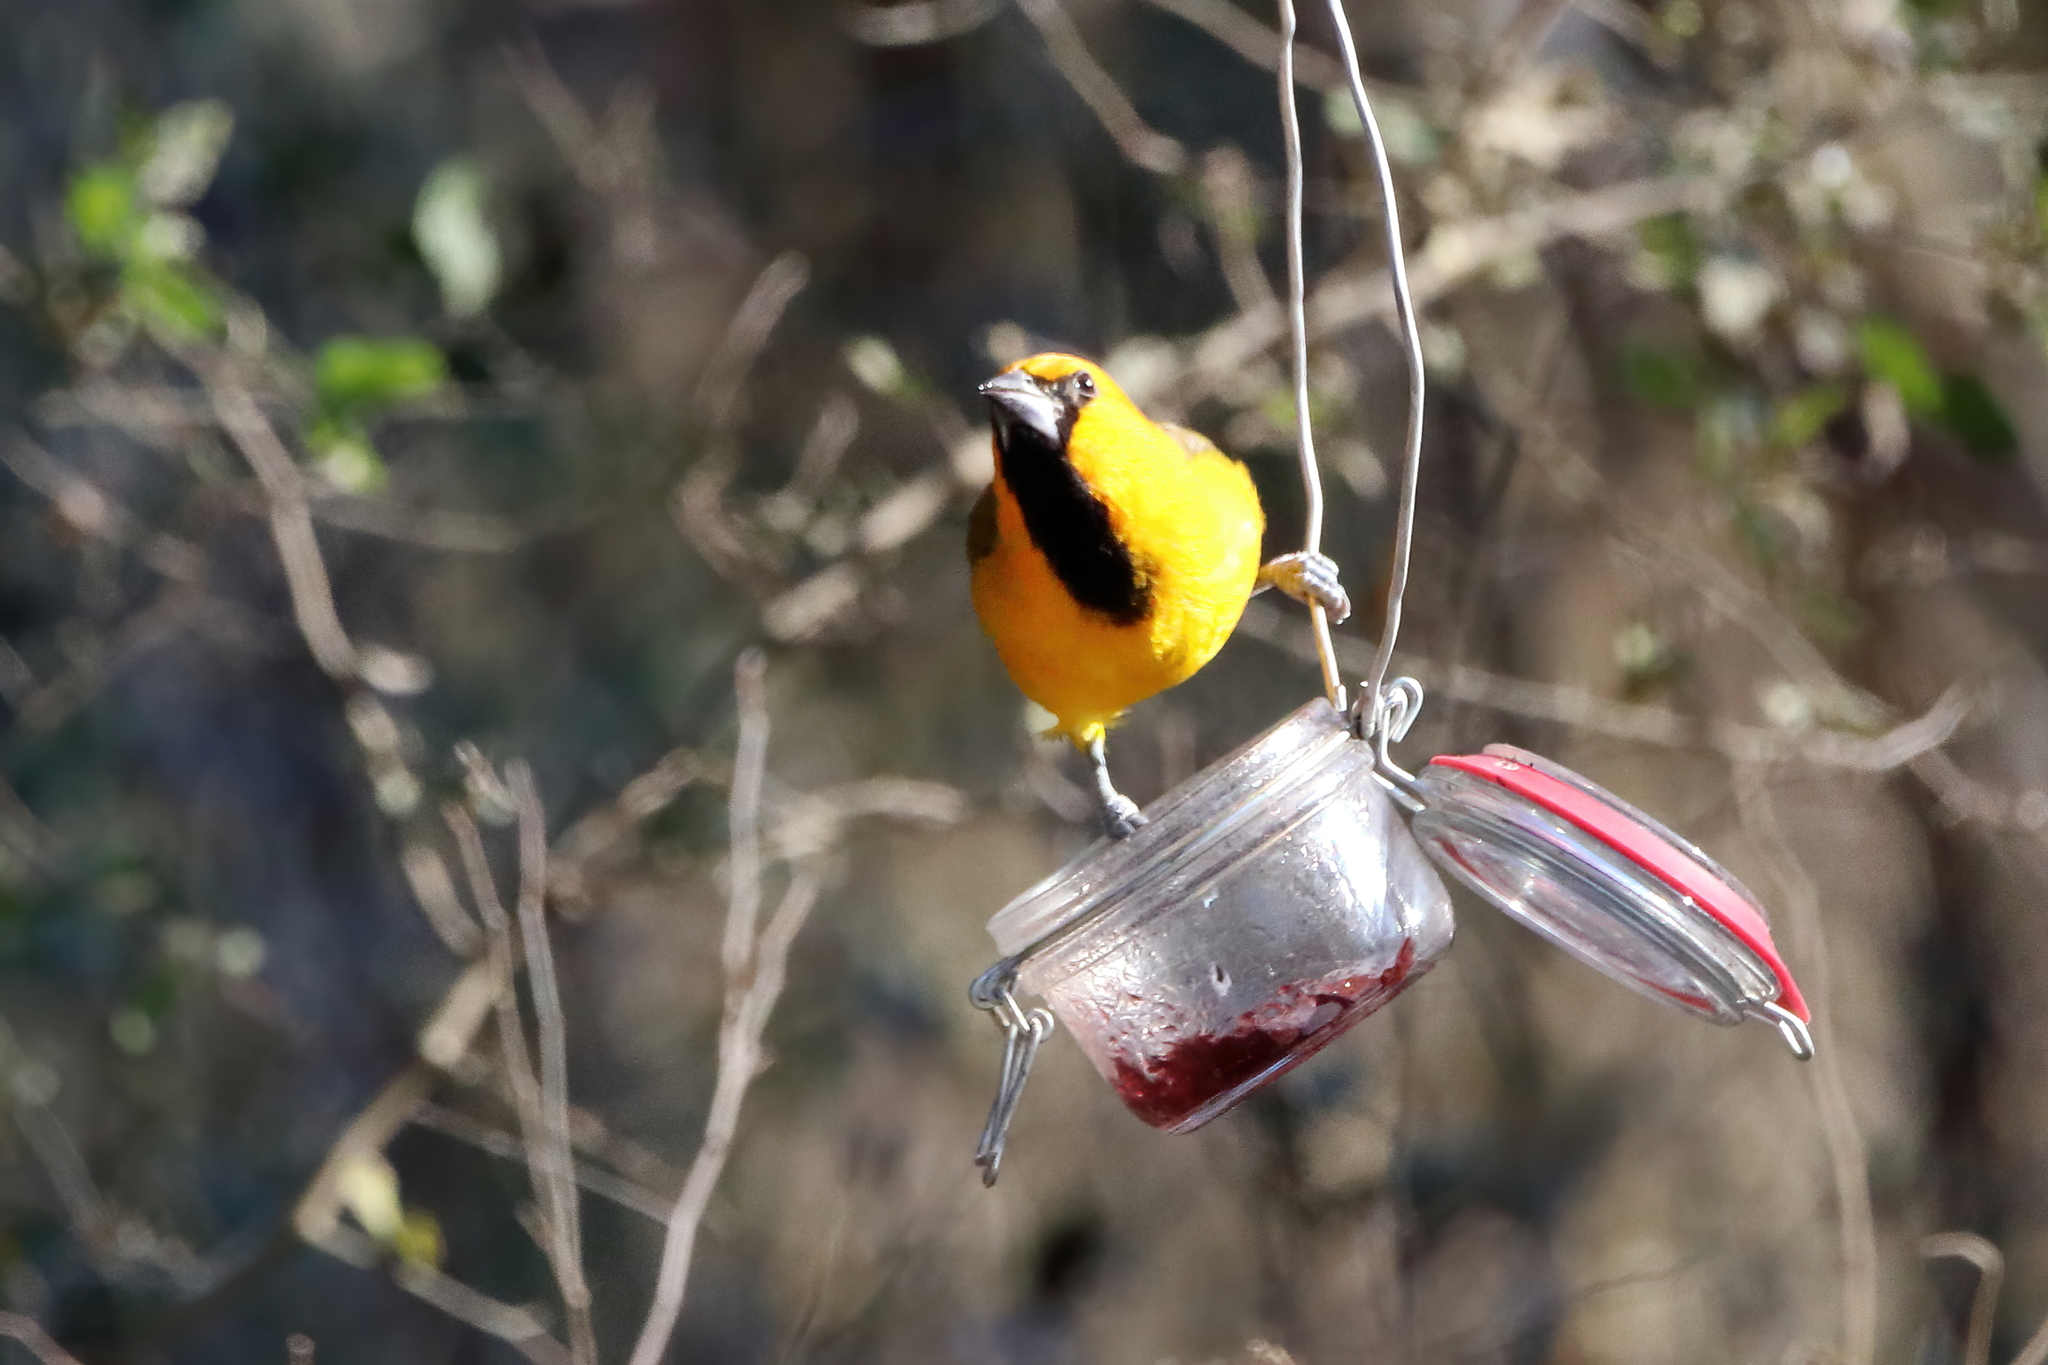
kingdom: Animalia
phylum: Chordata
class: Aves
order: Passeriformes
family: Icteridae
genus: Icterus
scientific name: Icterus gularis
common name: Altamira oriole
